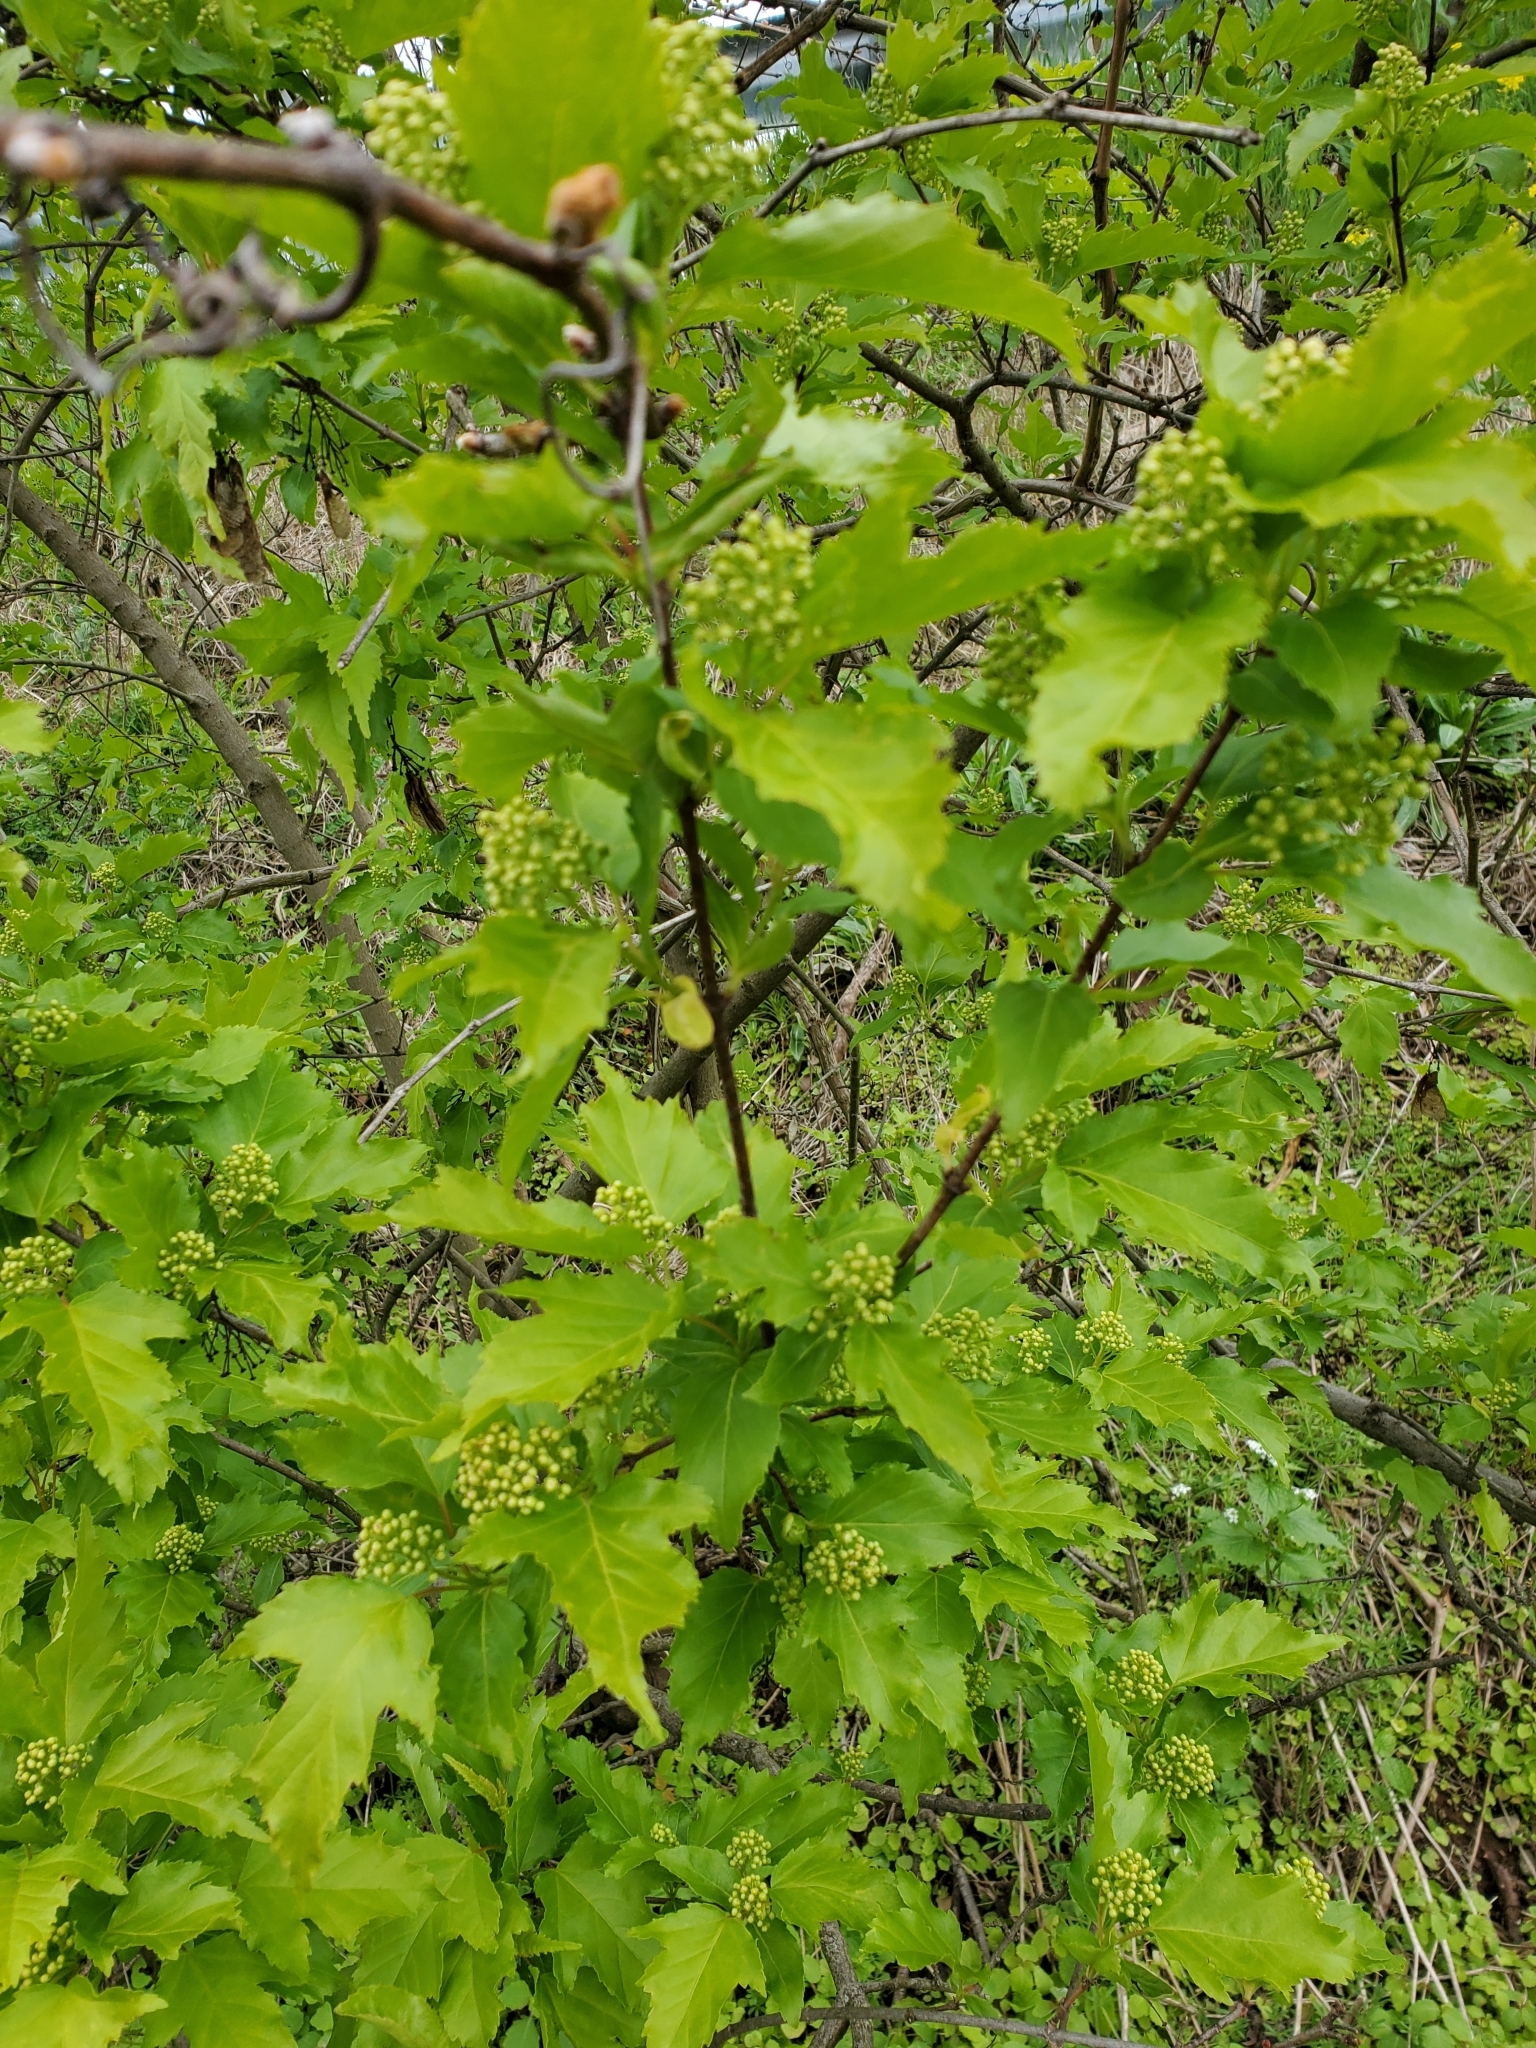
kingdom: Plantae
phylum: Tracheophyta
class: Magnoliopsida
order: Sapindales
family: Sapindaceae
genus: Acer
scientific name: Acer tataricum
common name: Tartar maple
